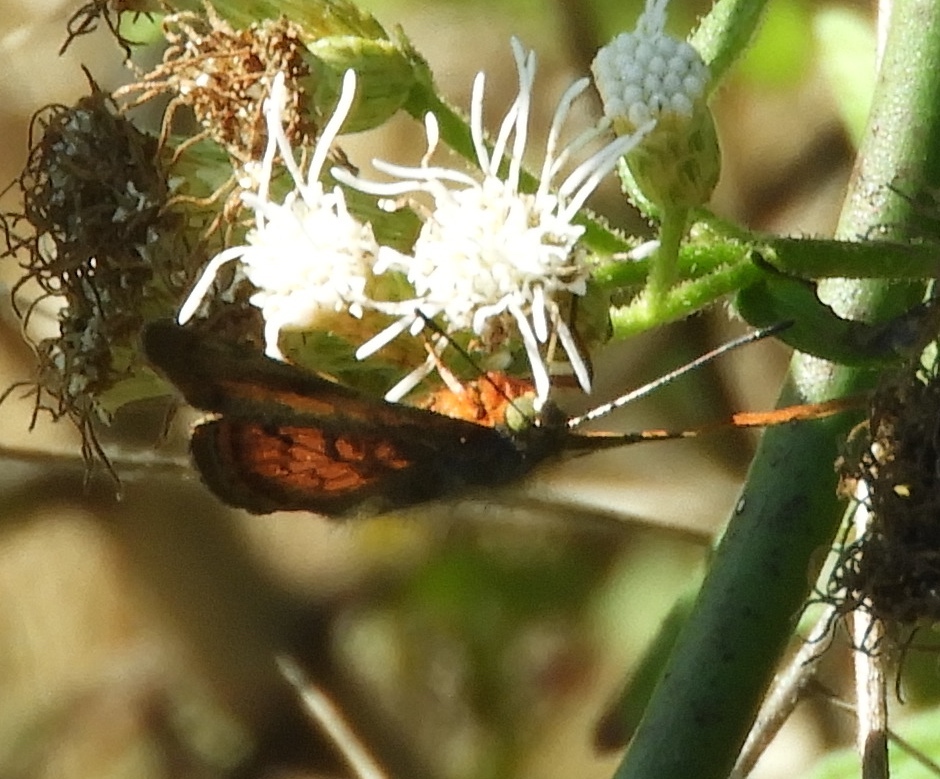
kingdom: Animalia
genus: Caria
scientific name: Caria ino
